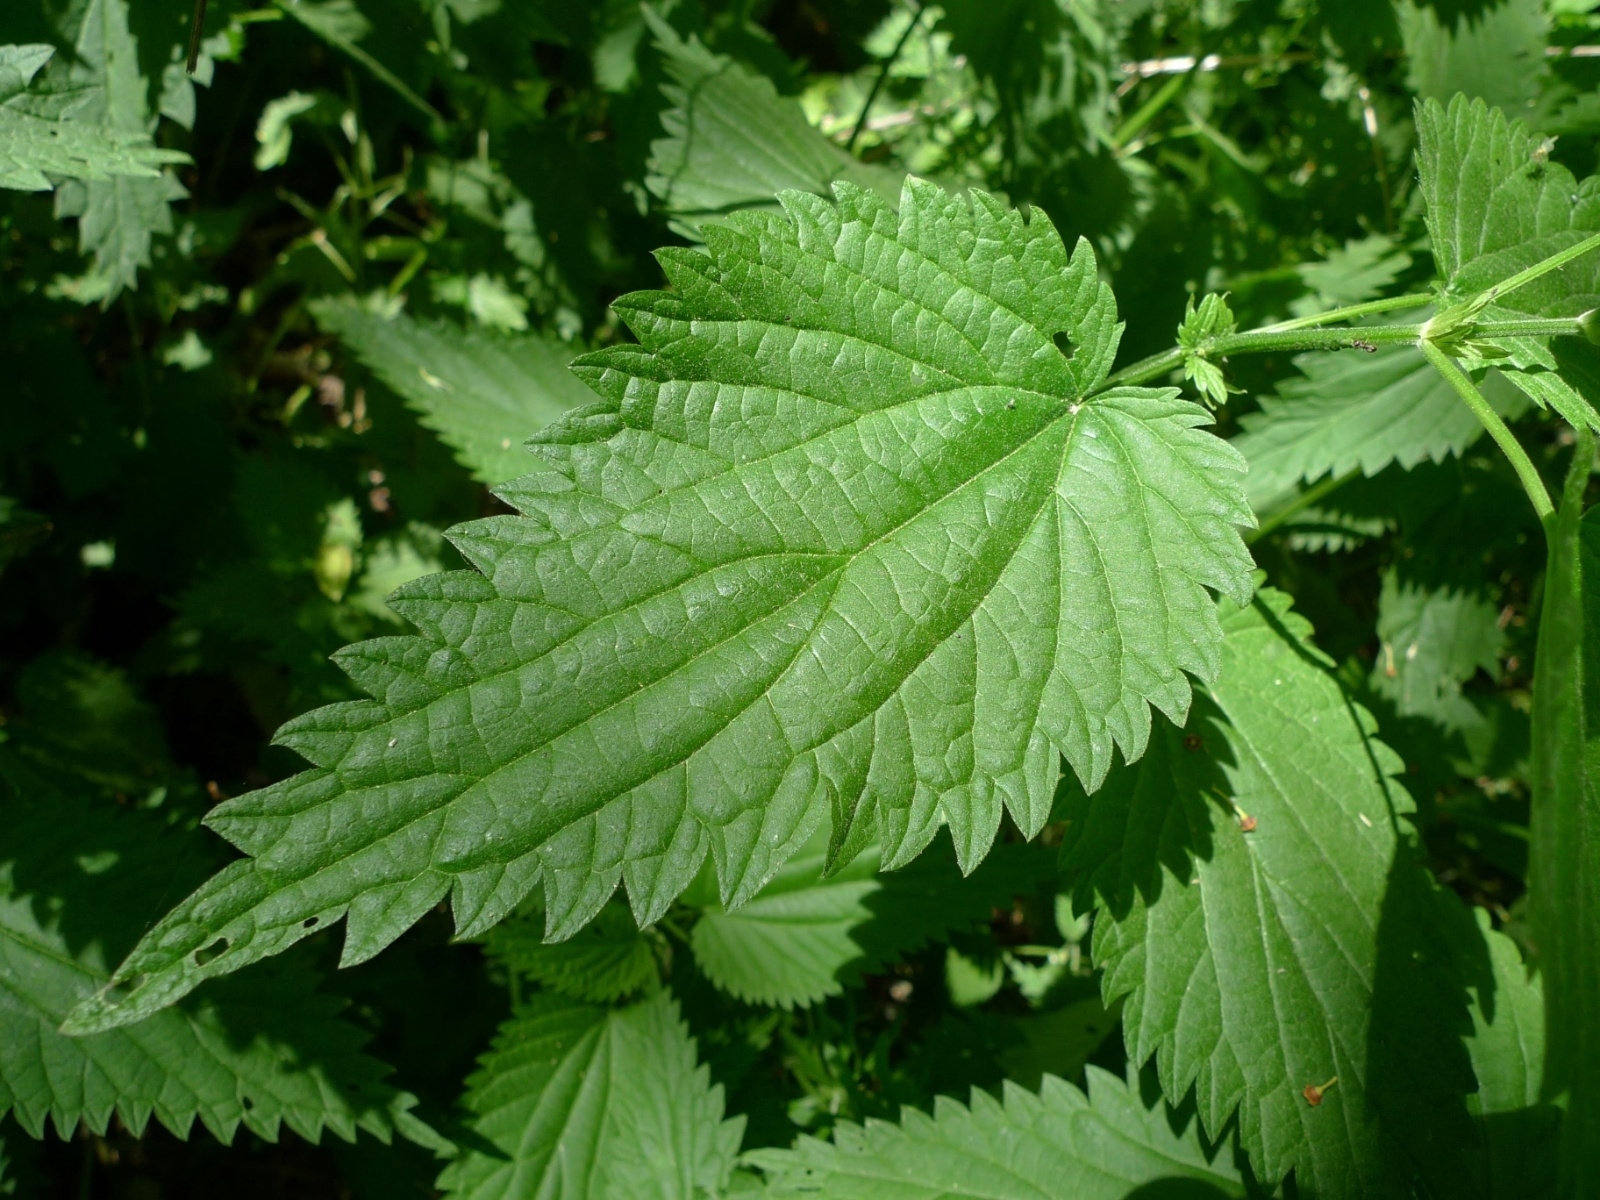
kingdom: Plantae
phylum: Tracheophyta
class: Magnoliopsida
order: Rosales
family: Urticaceae
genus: Urtica
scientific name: Urtica dioica
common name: Common nettle
